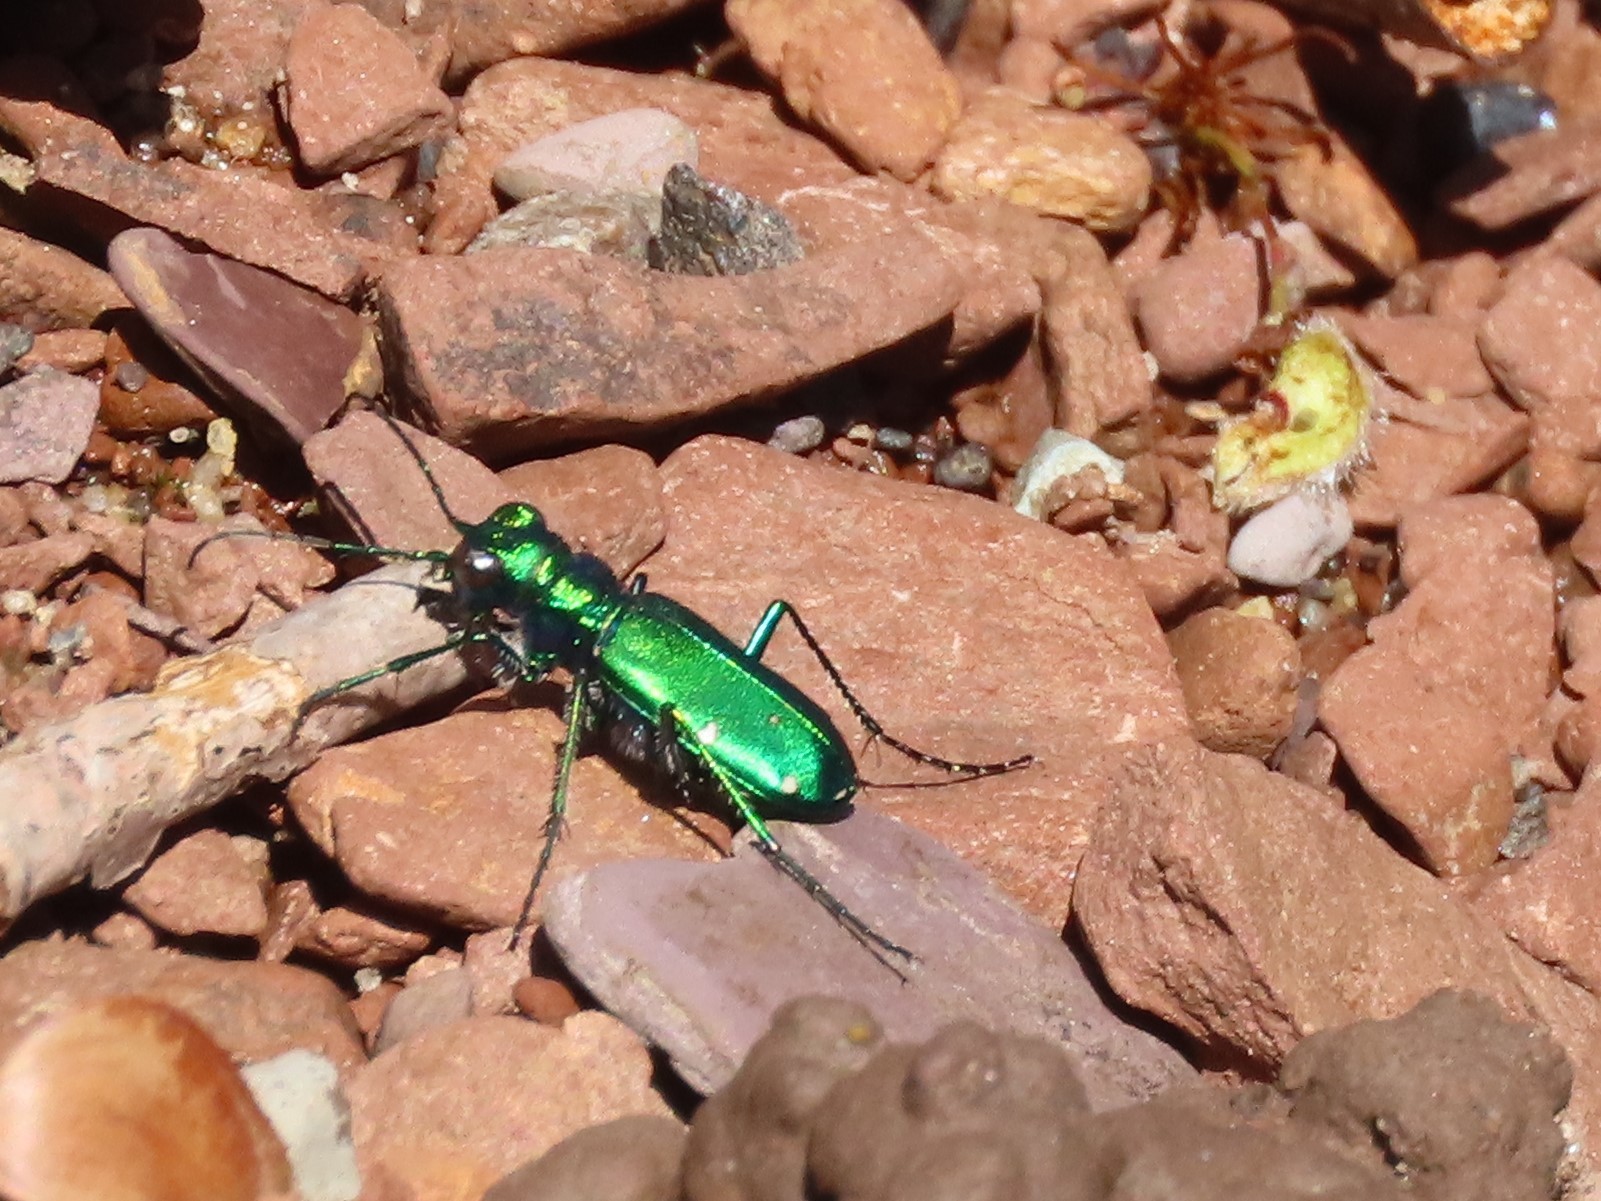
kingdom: Animalia
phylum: Arthropoda
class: Insecta
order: Coleoptera
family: Carabidae
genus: Cicindela
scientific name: Cicindela sexguttata
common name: Six-spotted tiger beetle
